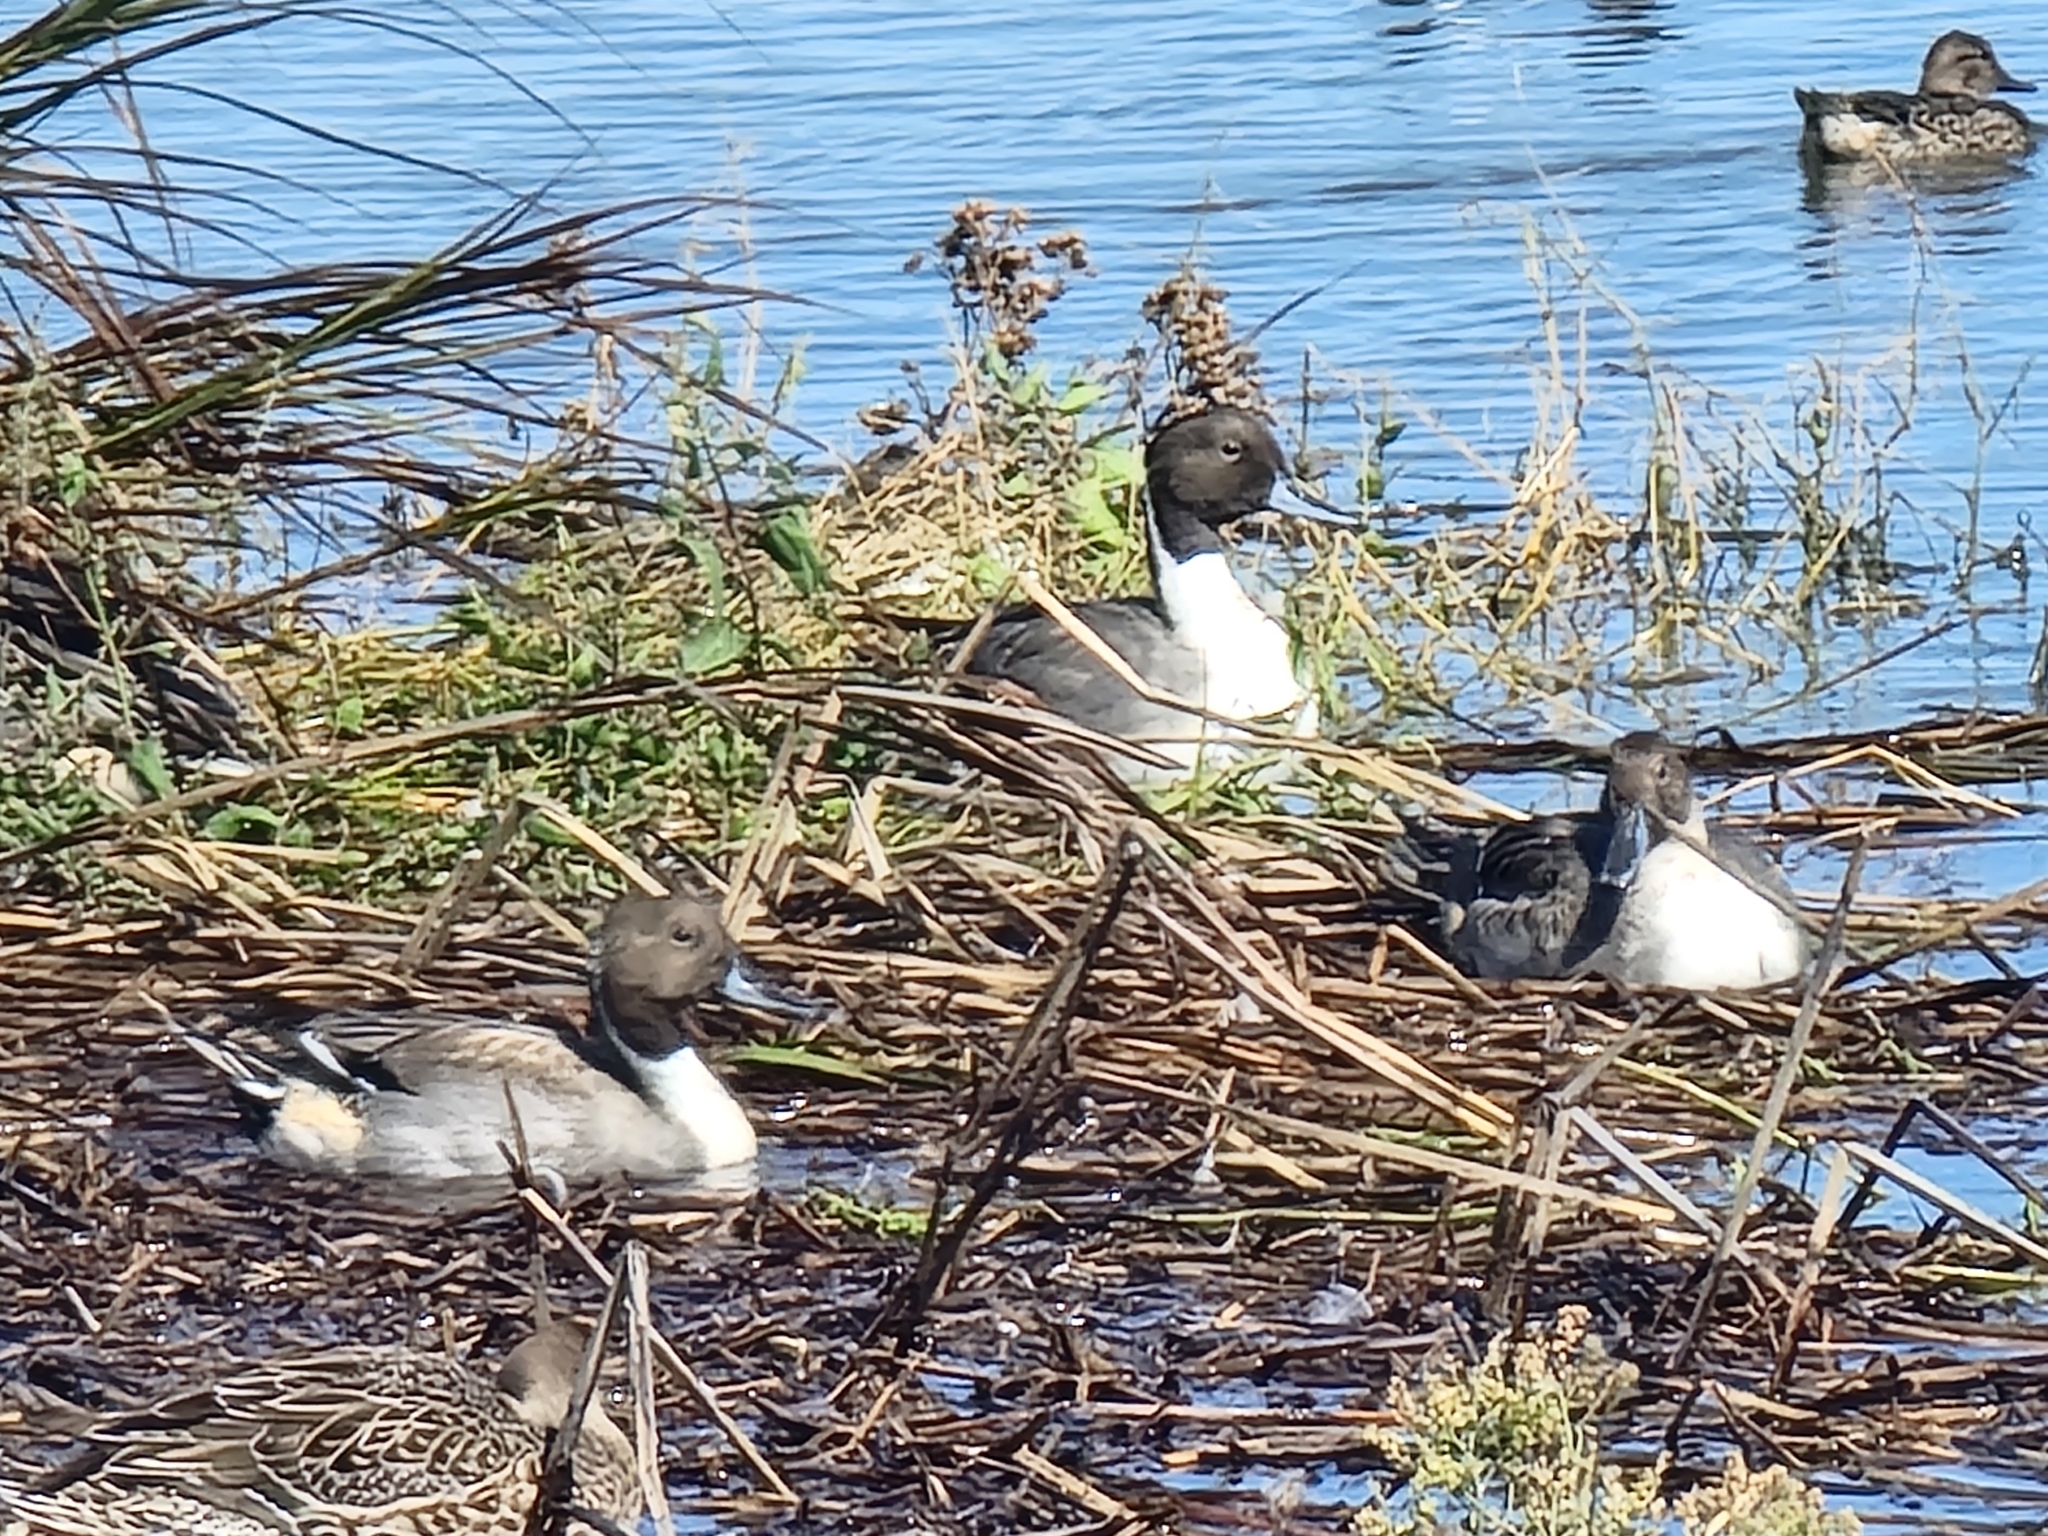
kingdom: Animalia
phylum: Chordata
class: Aves
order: Anseriformes
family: Anatidae
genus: Anas
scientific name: Anas acuta
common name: Northern pintail
